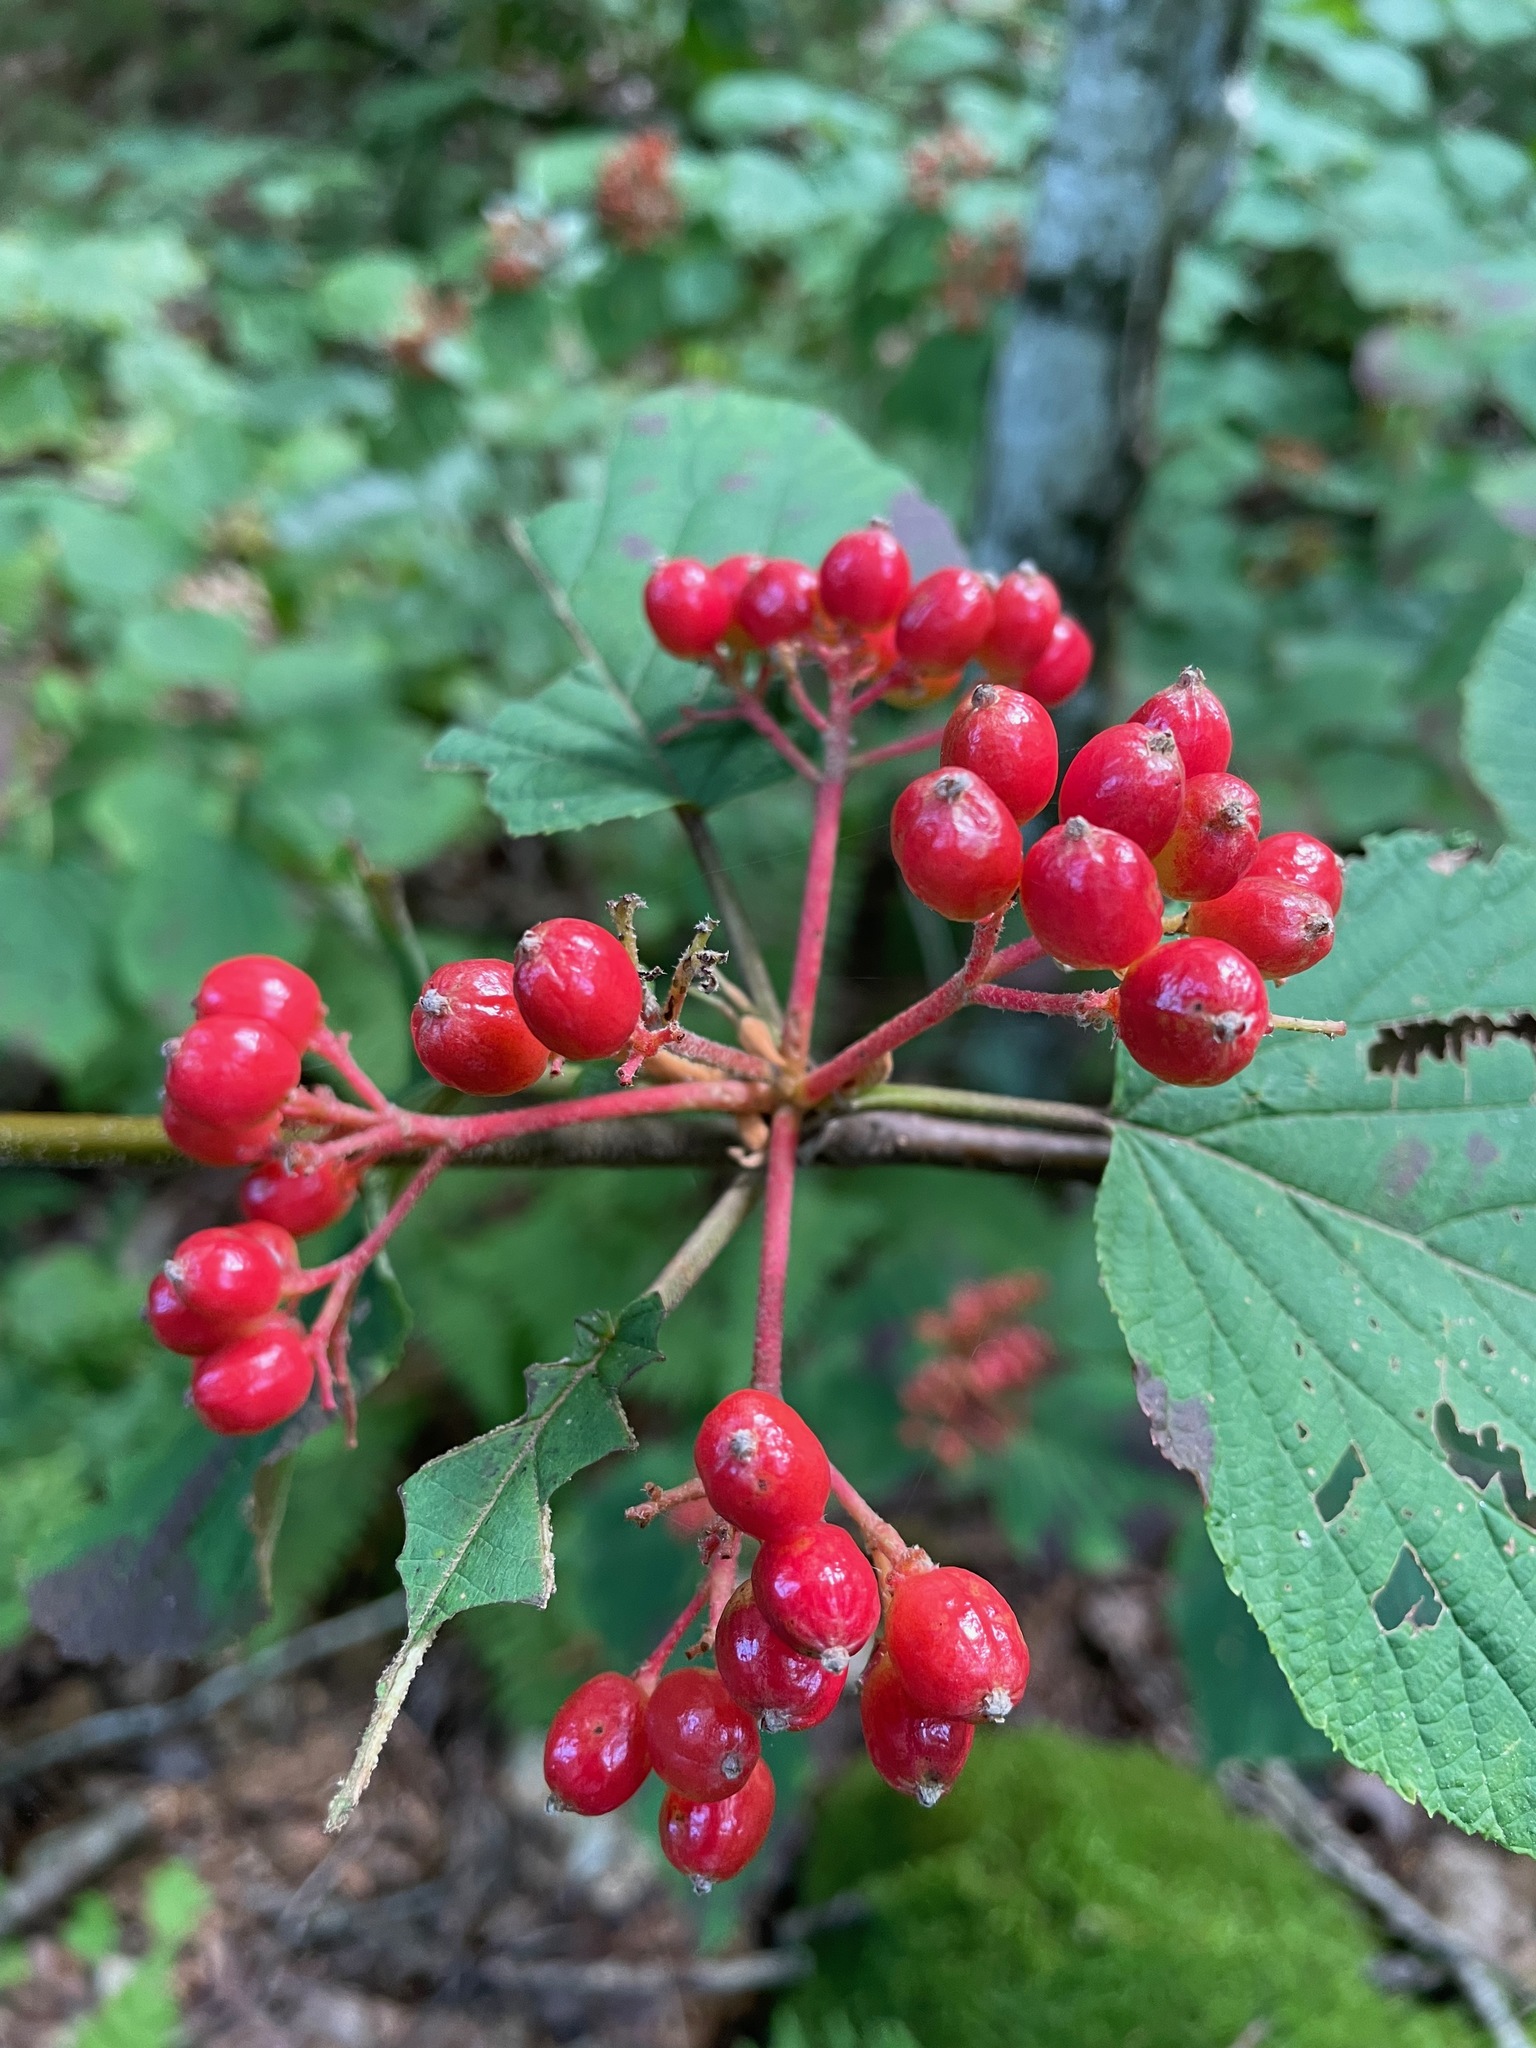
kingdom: Plantae
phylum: Tracheophyta
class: Magnoliopsida
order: Dipsacales
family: Viburnaceae
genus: Viburnum
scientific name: Viburnum lantanoides
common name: Hobblebush
